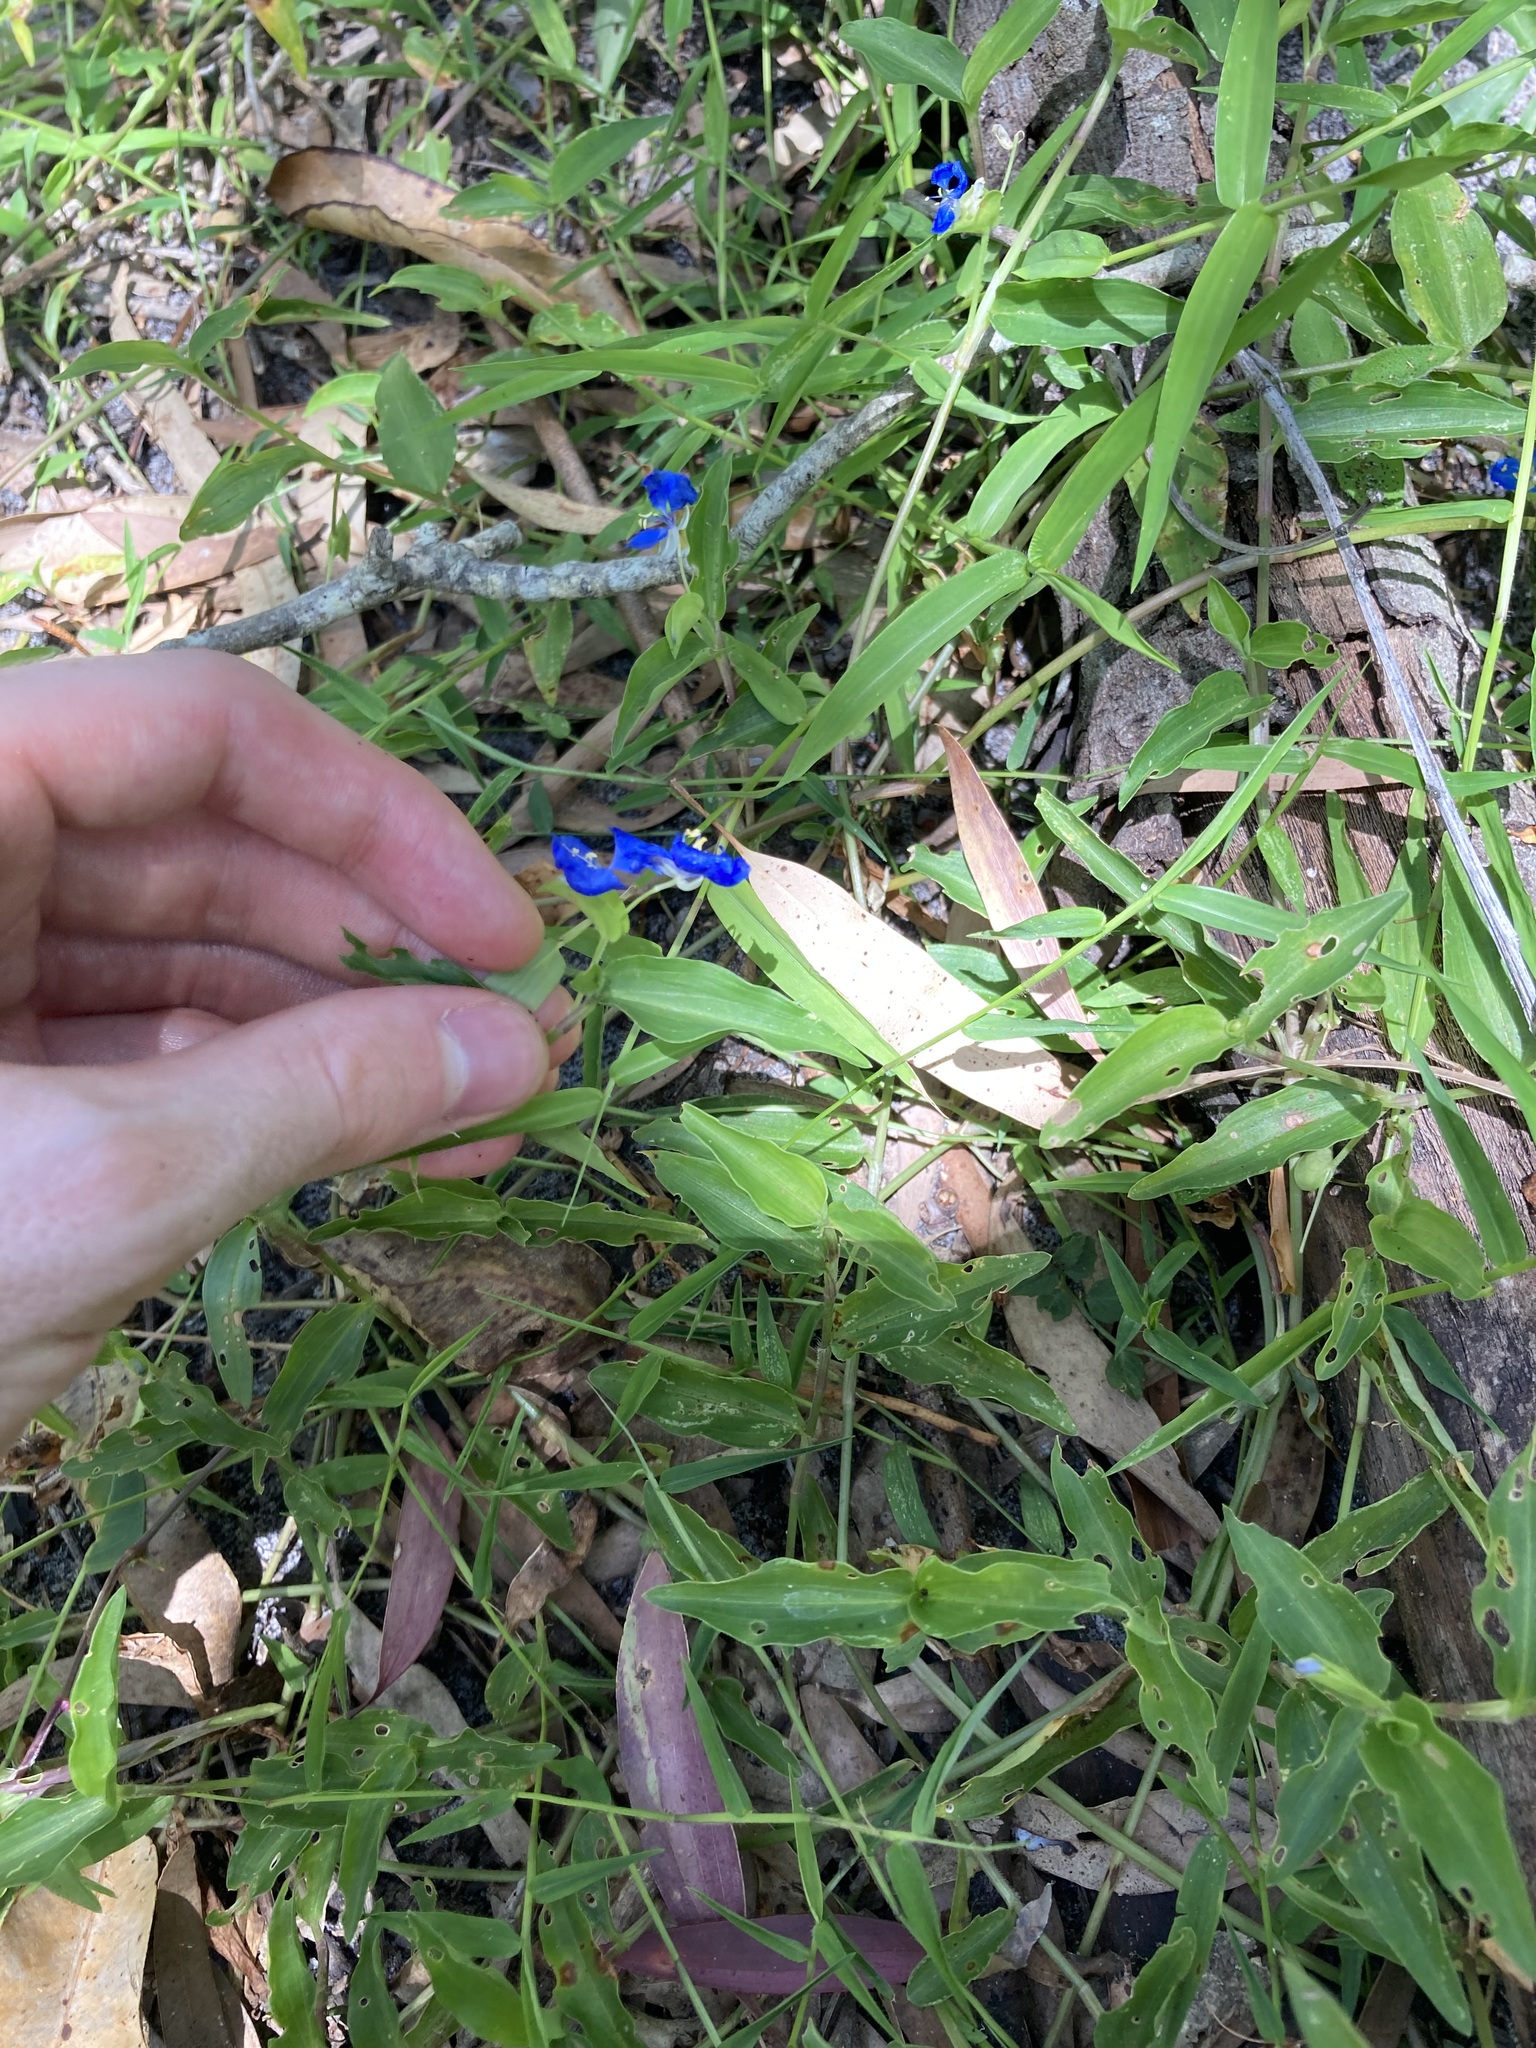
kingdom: Plantae
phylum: Tracheophyta
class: Liliopsida
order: Commelinales
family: Commelinaceae
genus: Commelina
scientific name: Commelina cyanea
